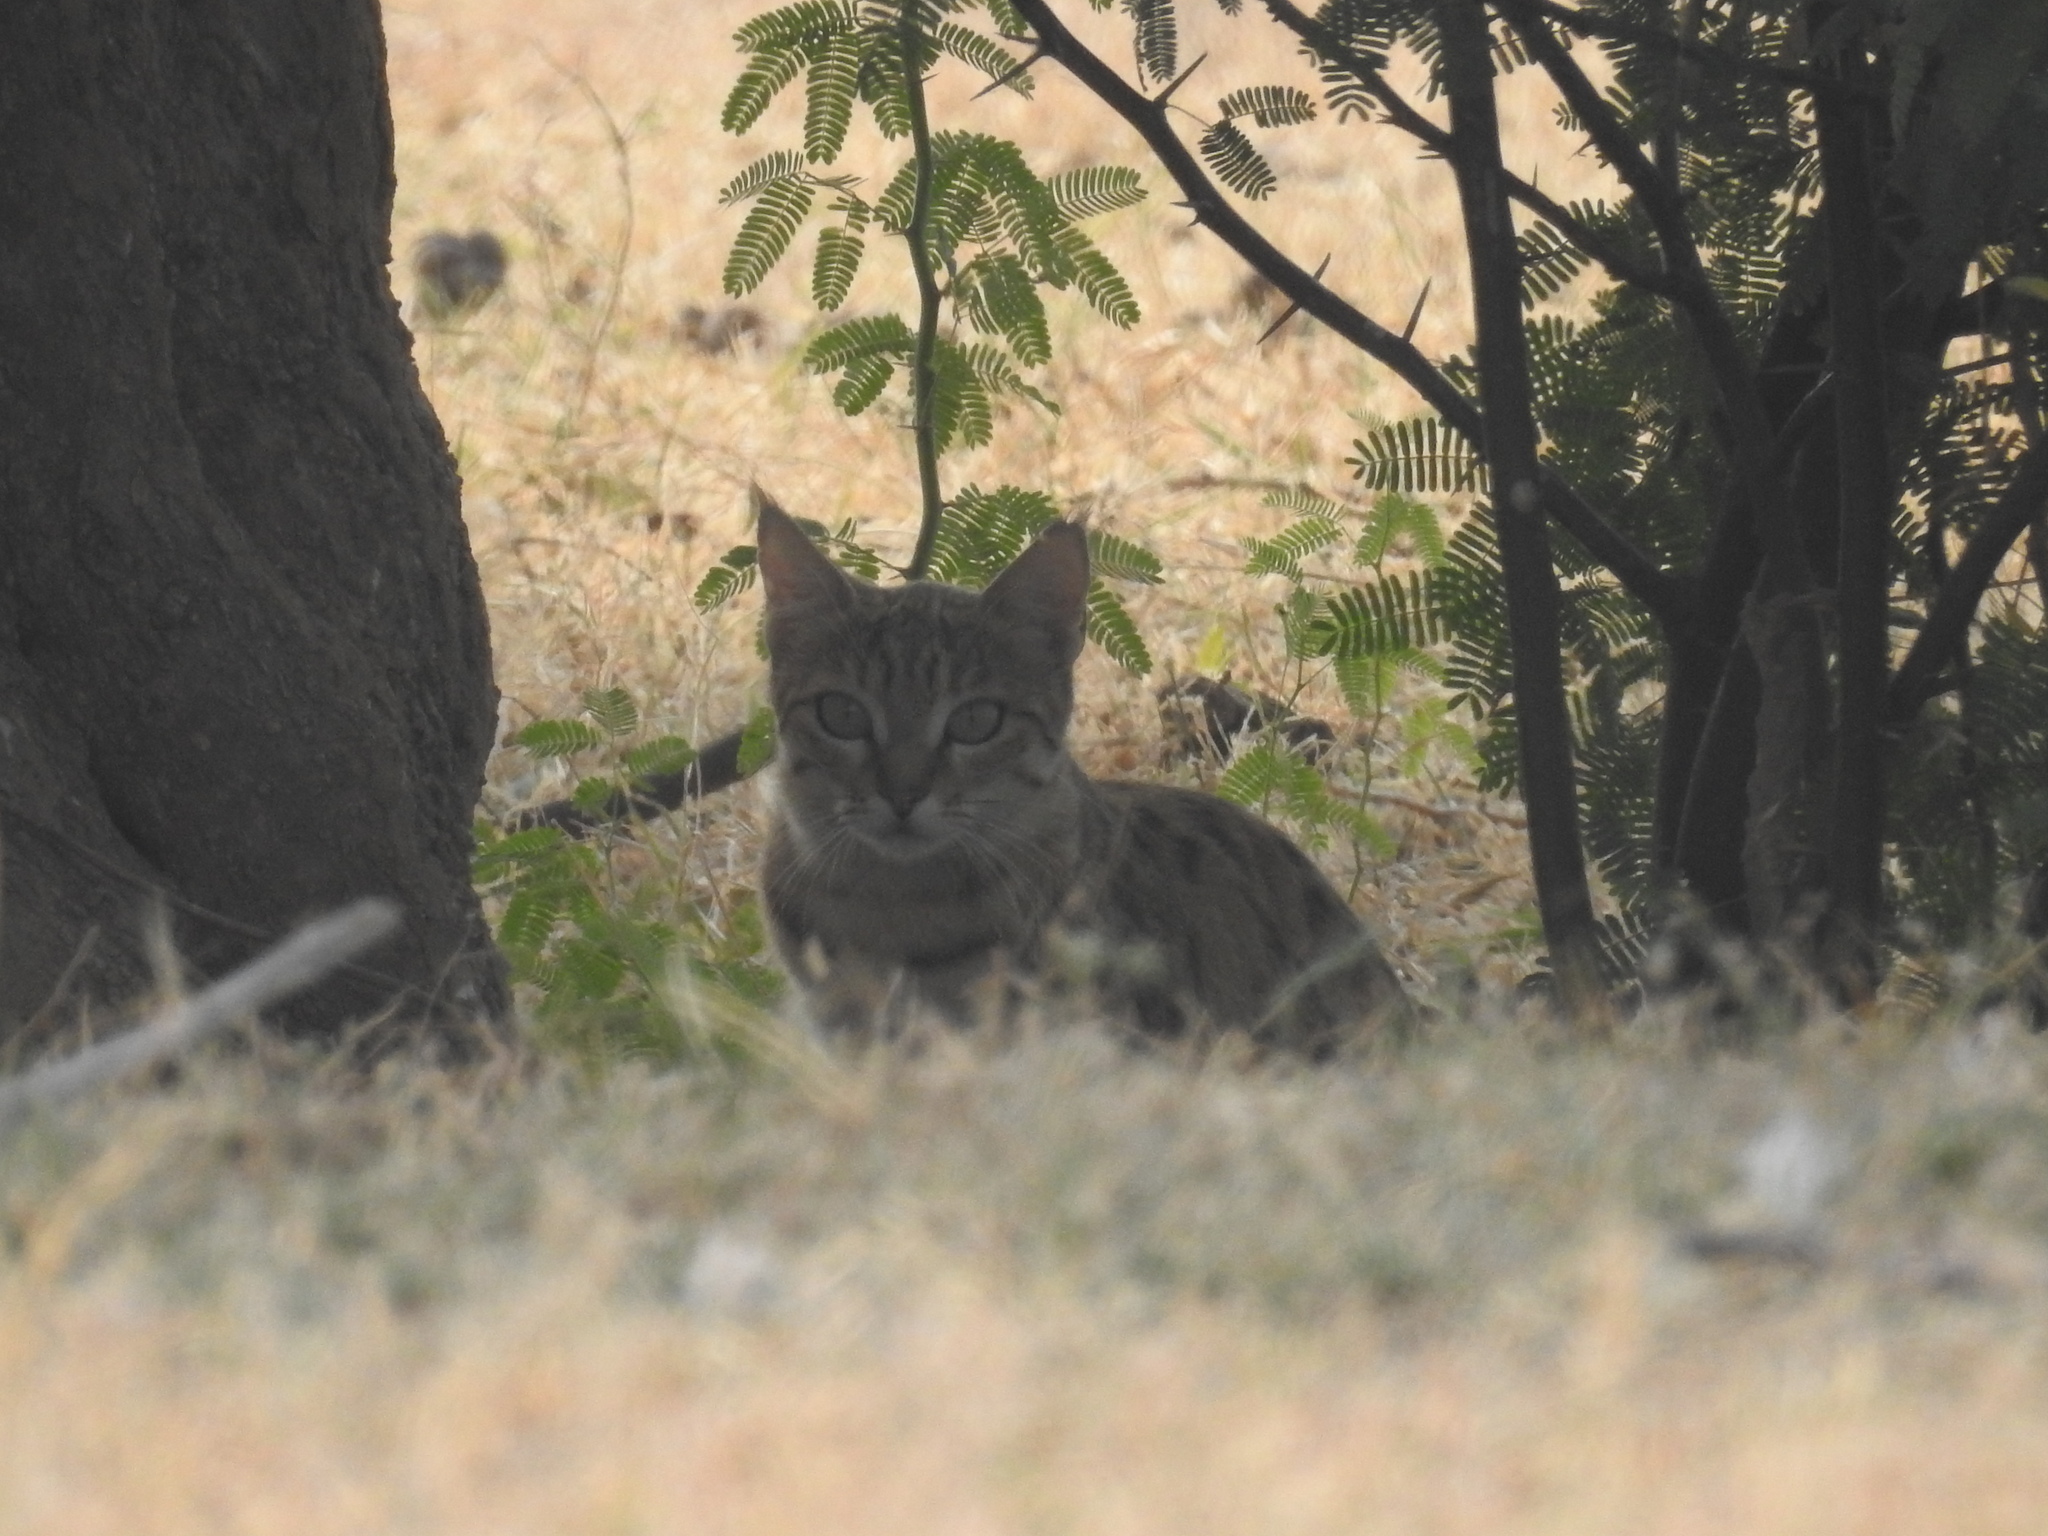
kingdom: Animalia
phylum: Chordata
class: Mammalia
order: Carnivora
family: Felidae
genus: Felis
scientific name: Felis silvestris
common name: Wildcat
